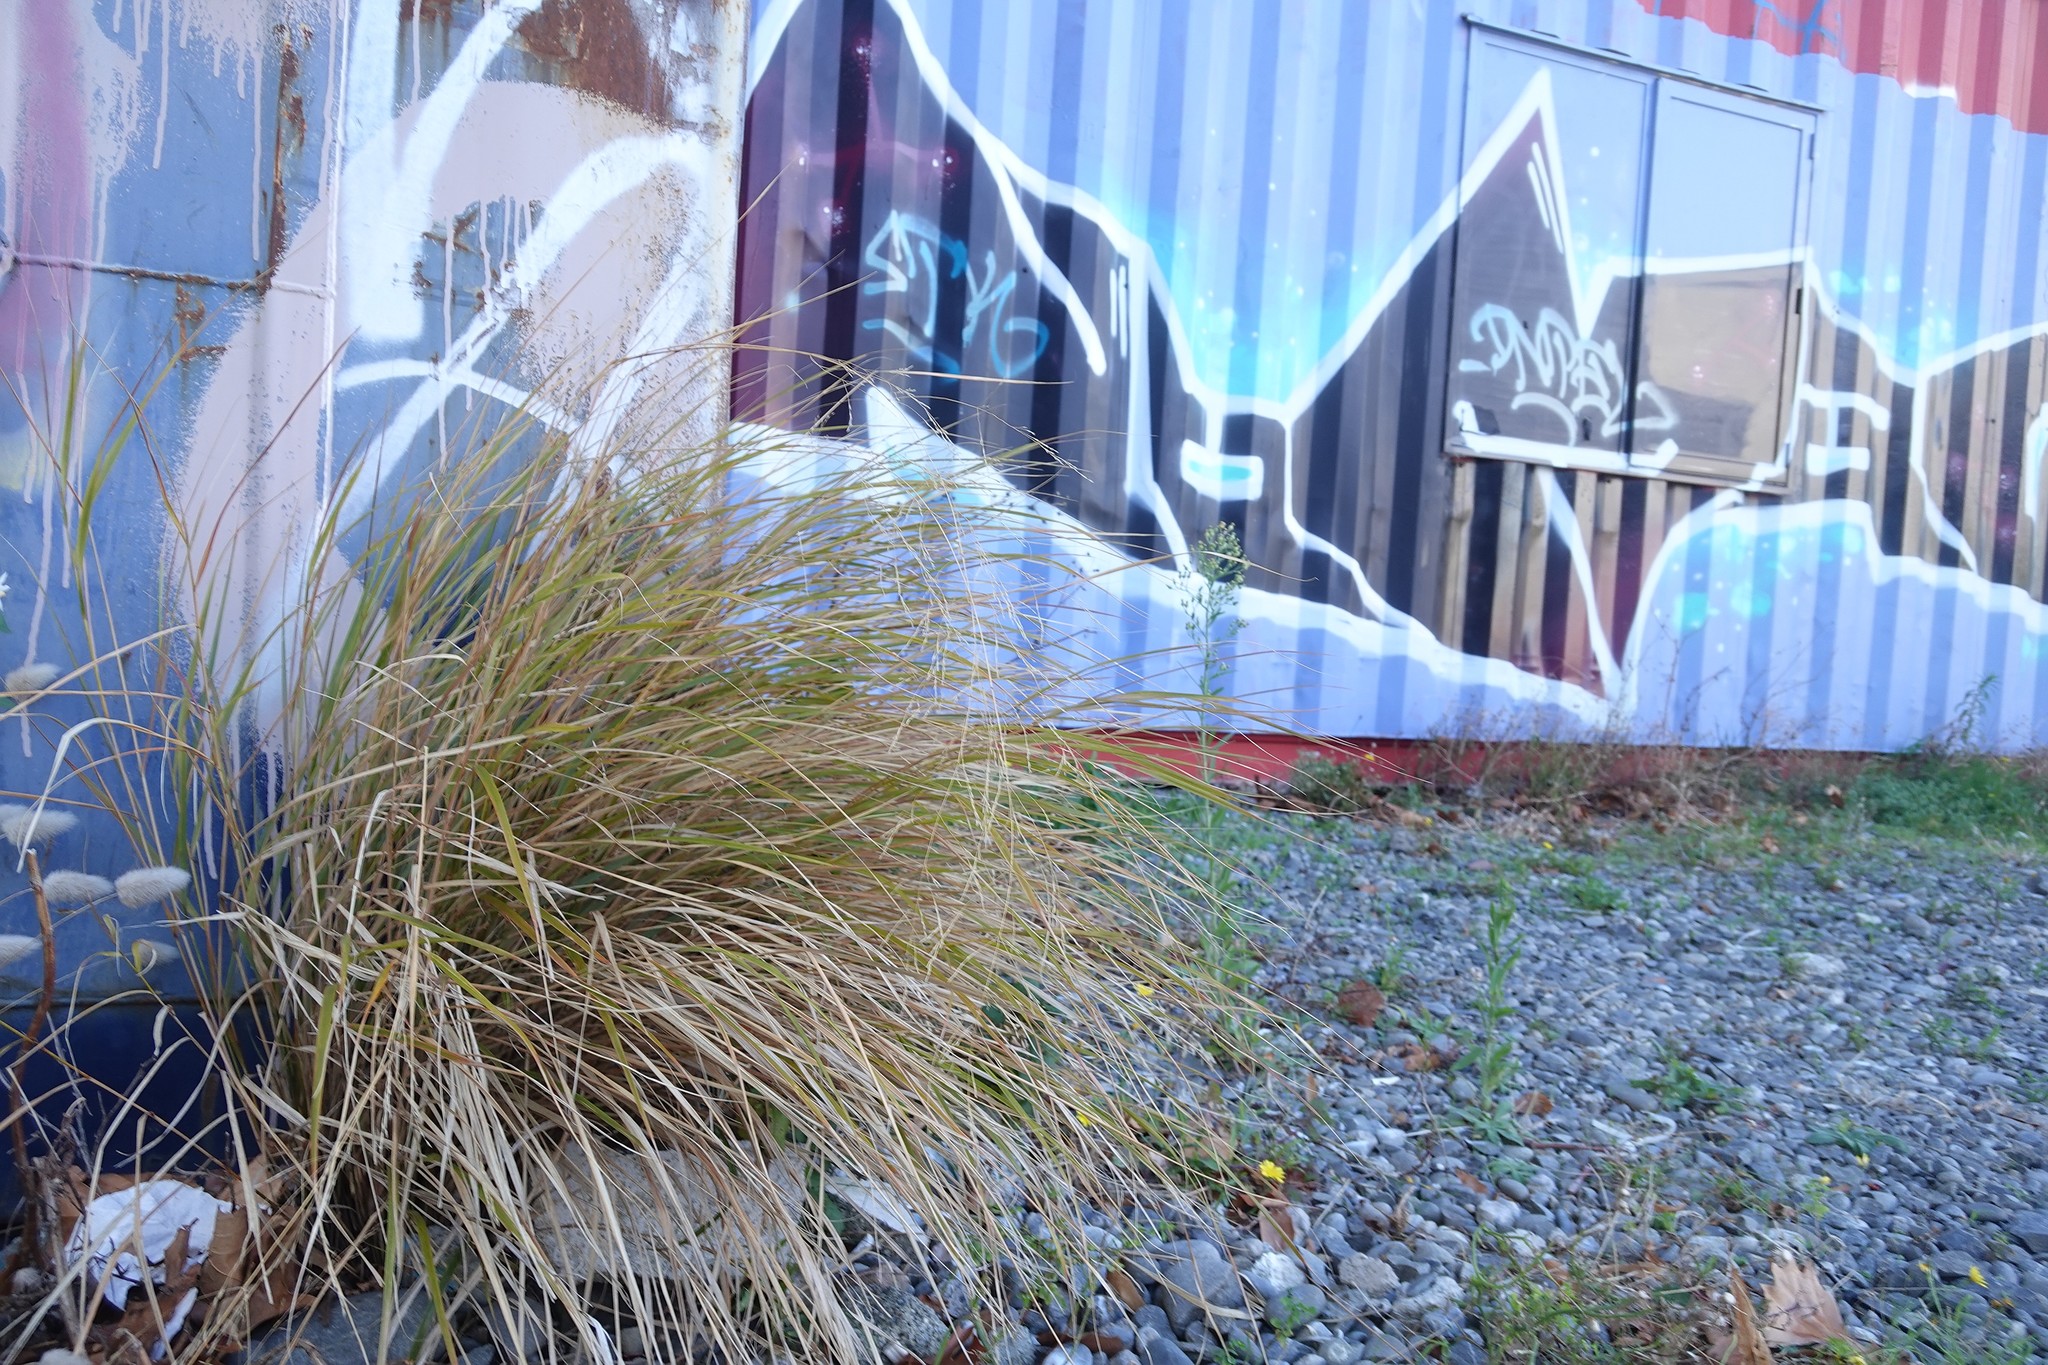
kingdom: Plantae
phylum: Tracheophyta
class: Liliopsida
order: Poales
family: Poaceae
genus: Anemanthele
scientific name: Anemanthele lessoniana
